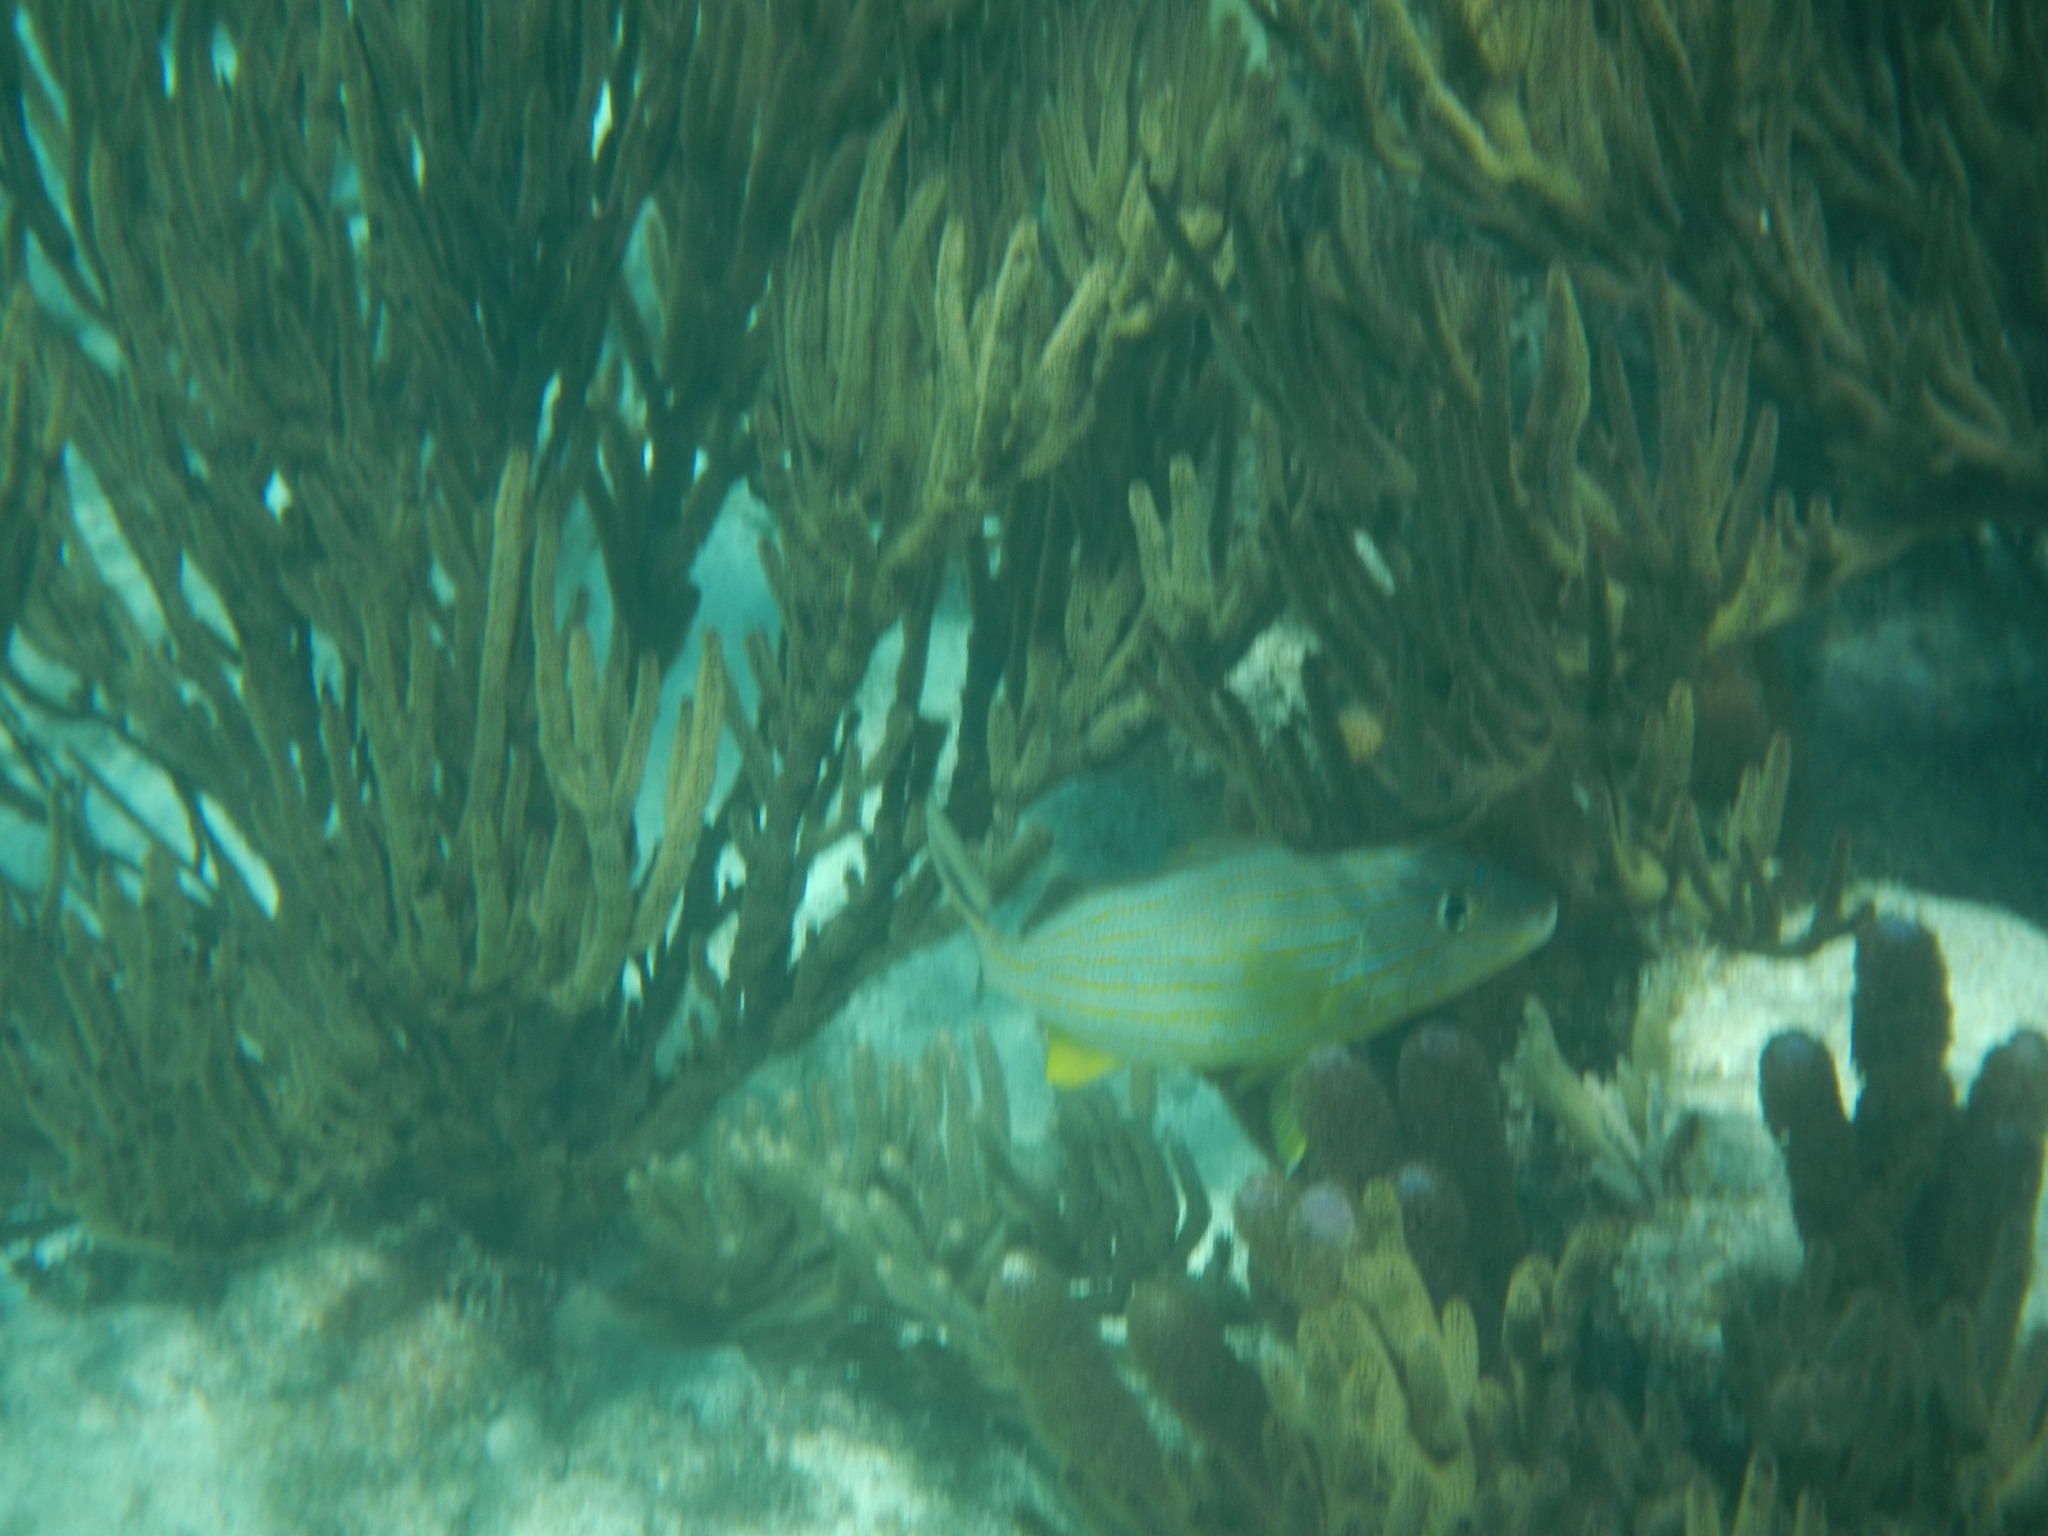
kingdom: Animalia
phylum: Chordata
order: Perciformes
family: Haemulidae
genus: Haemulon
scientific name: Haemulon sciurus
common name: Bluestriped grunt
